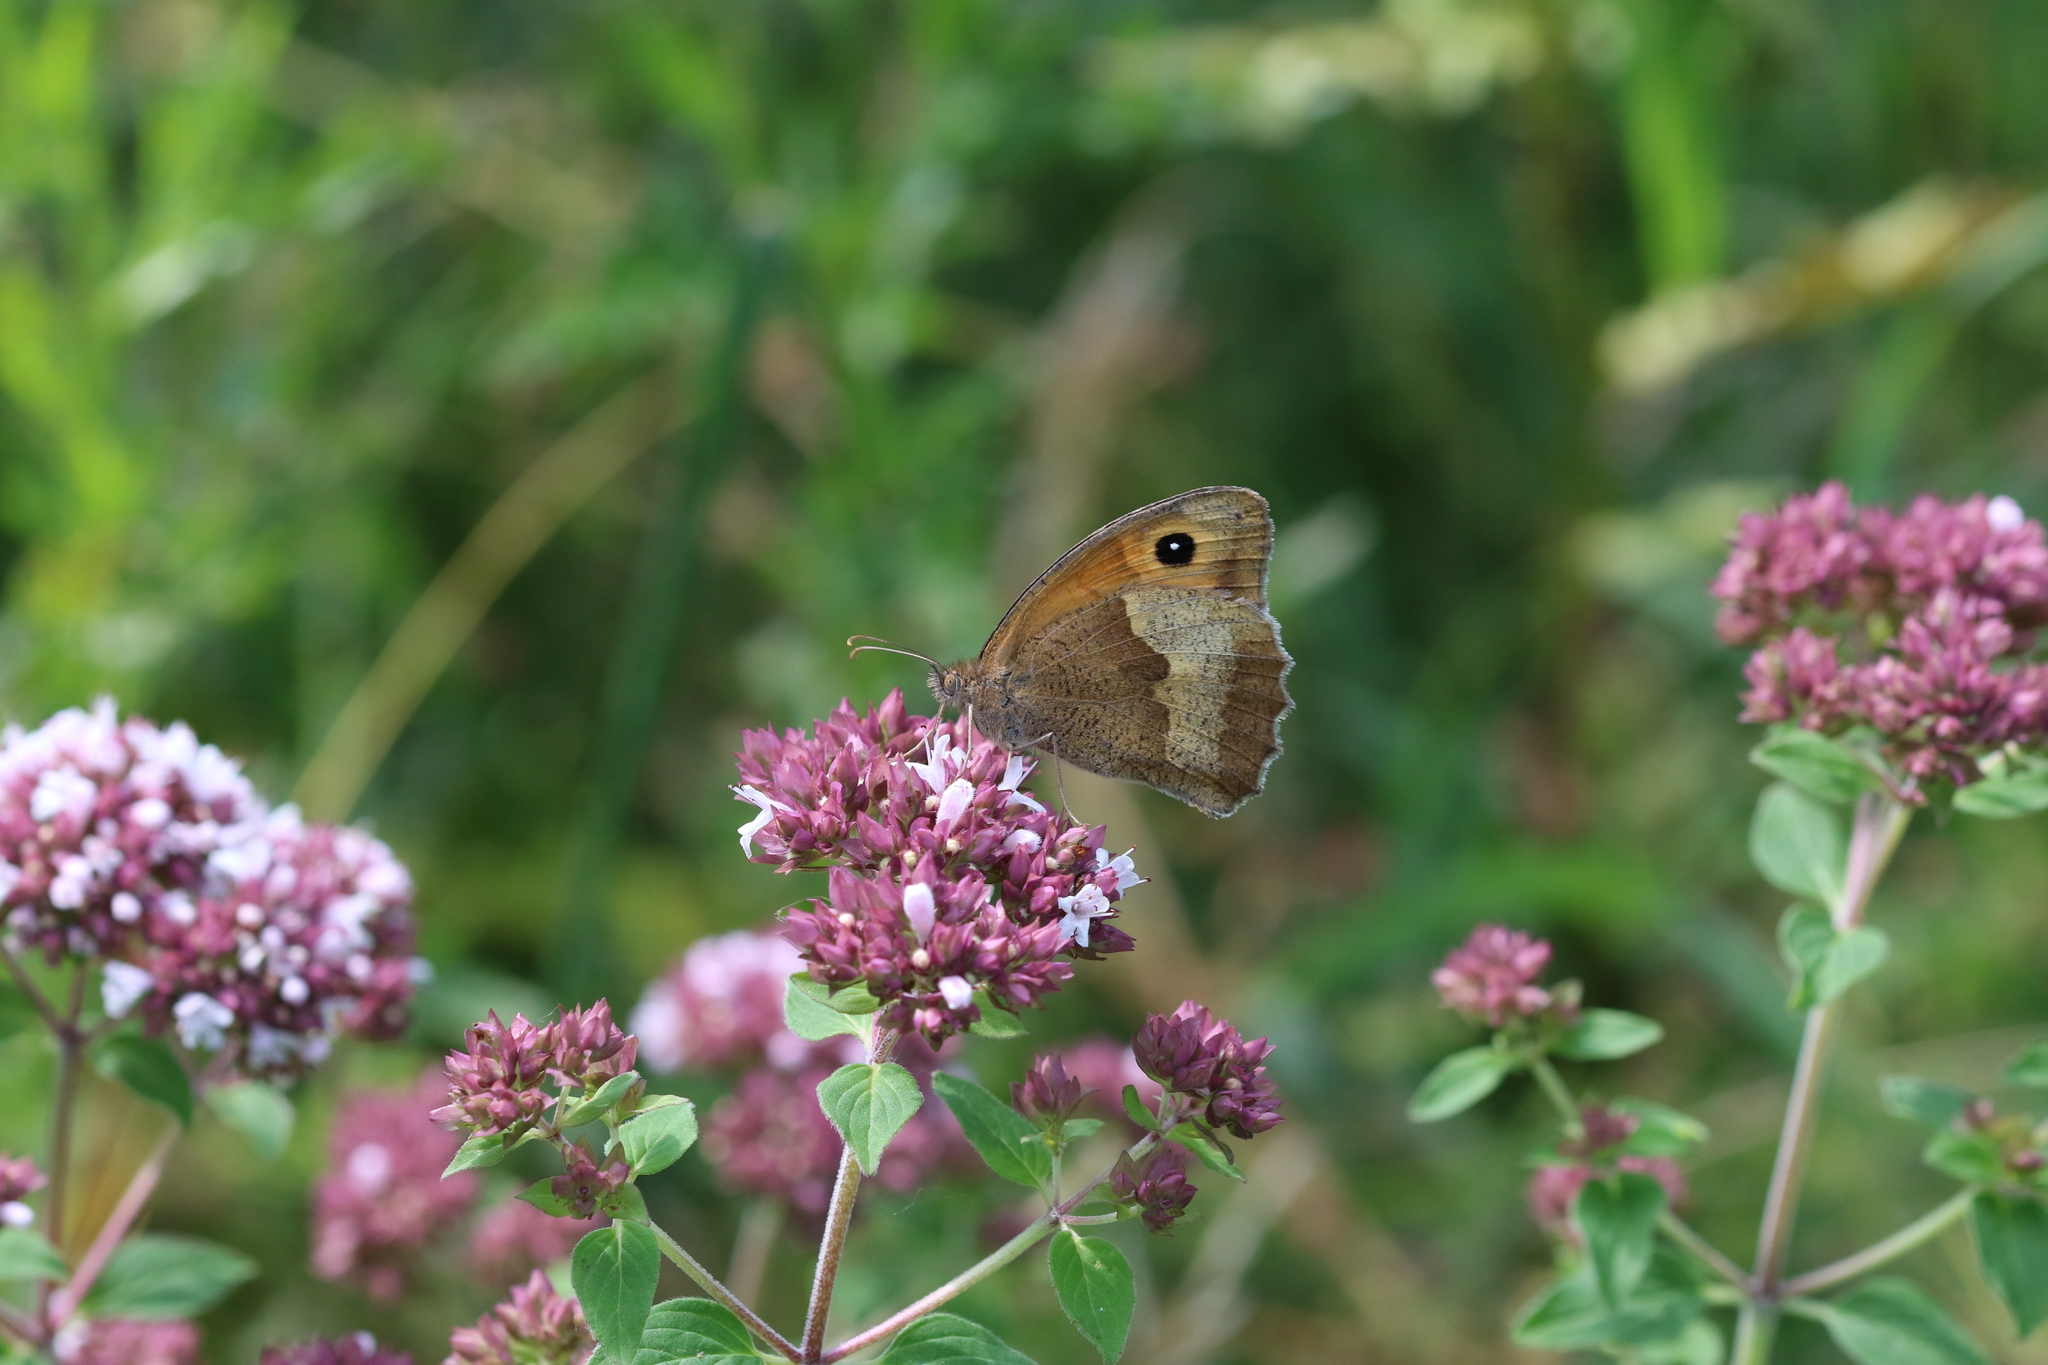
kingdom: Animalia
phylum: Arthropoda
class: Insecta
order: Lepidoptera
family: Nymphalidae
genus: Maniola
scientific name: Maniola jurtina
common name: Meadow brown
